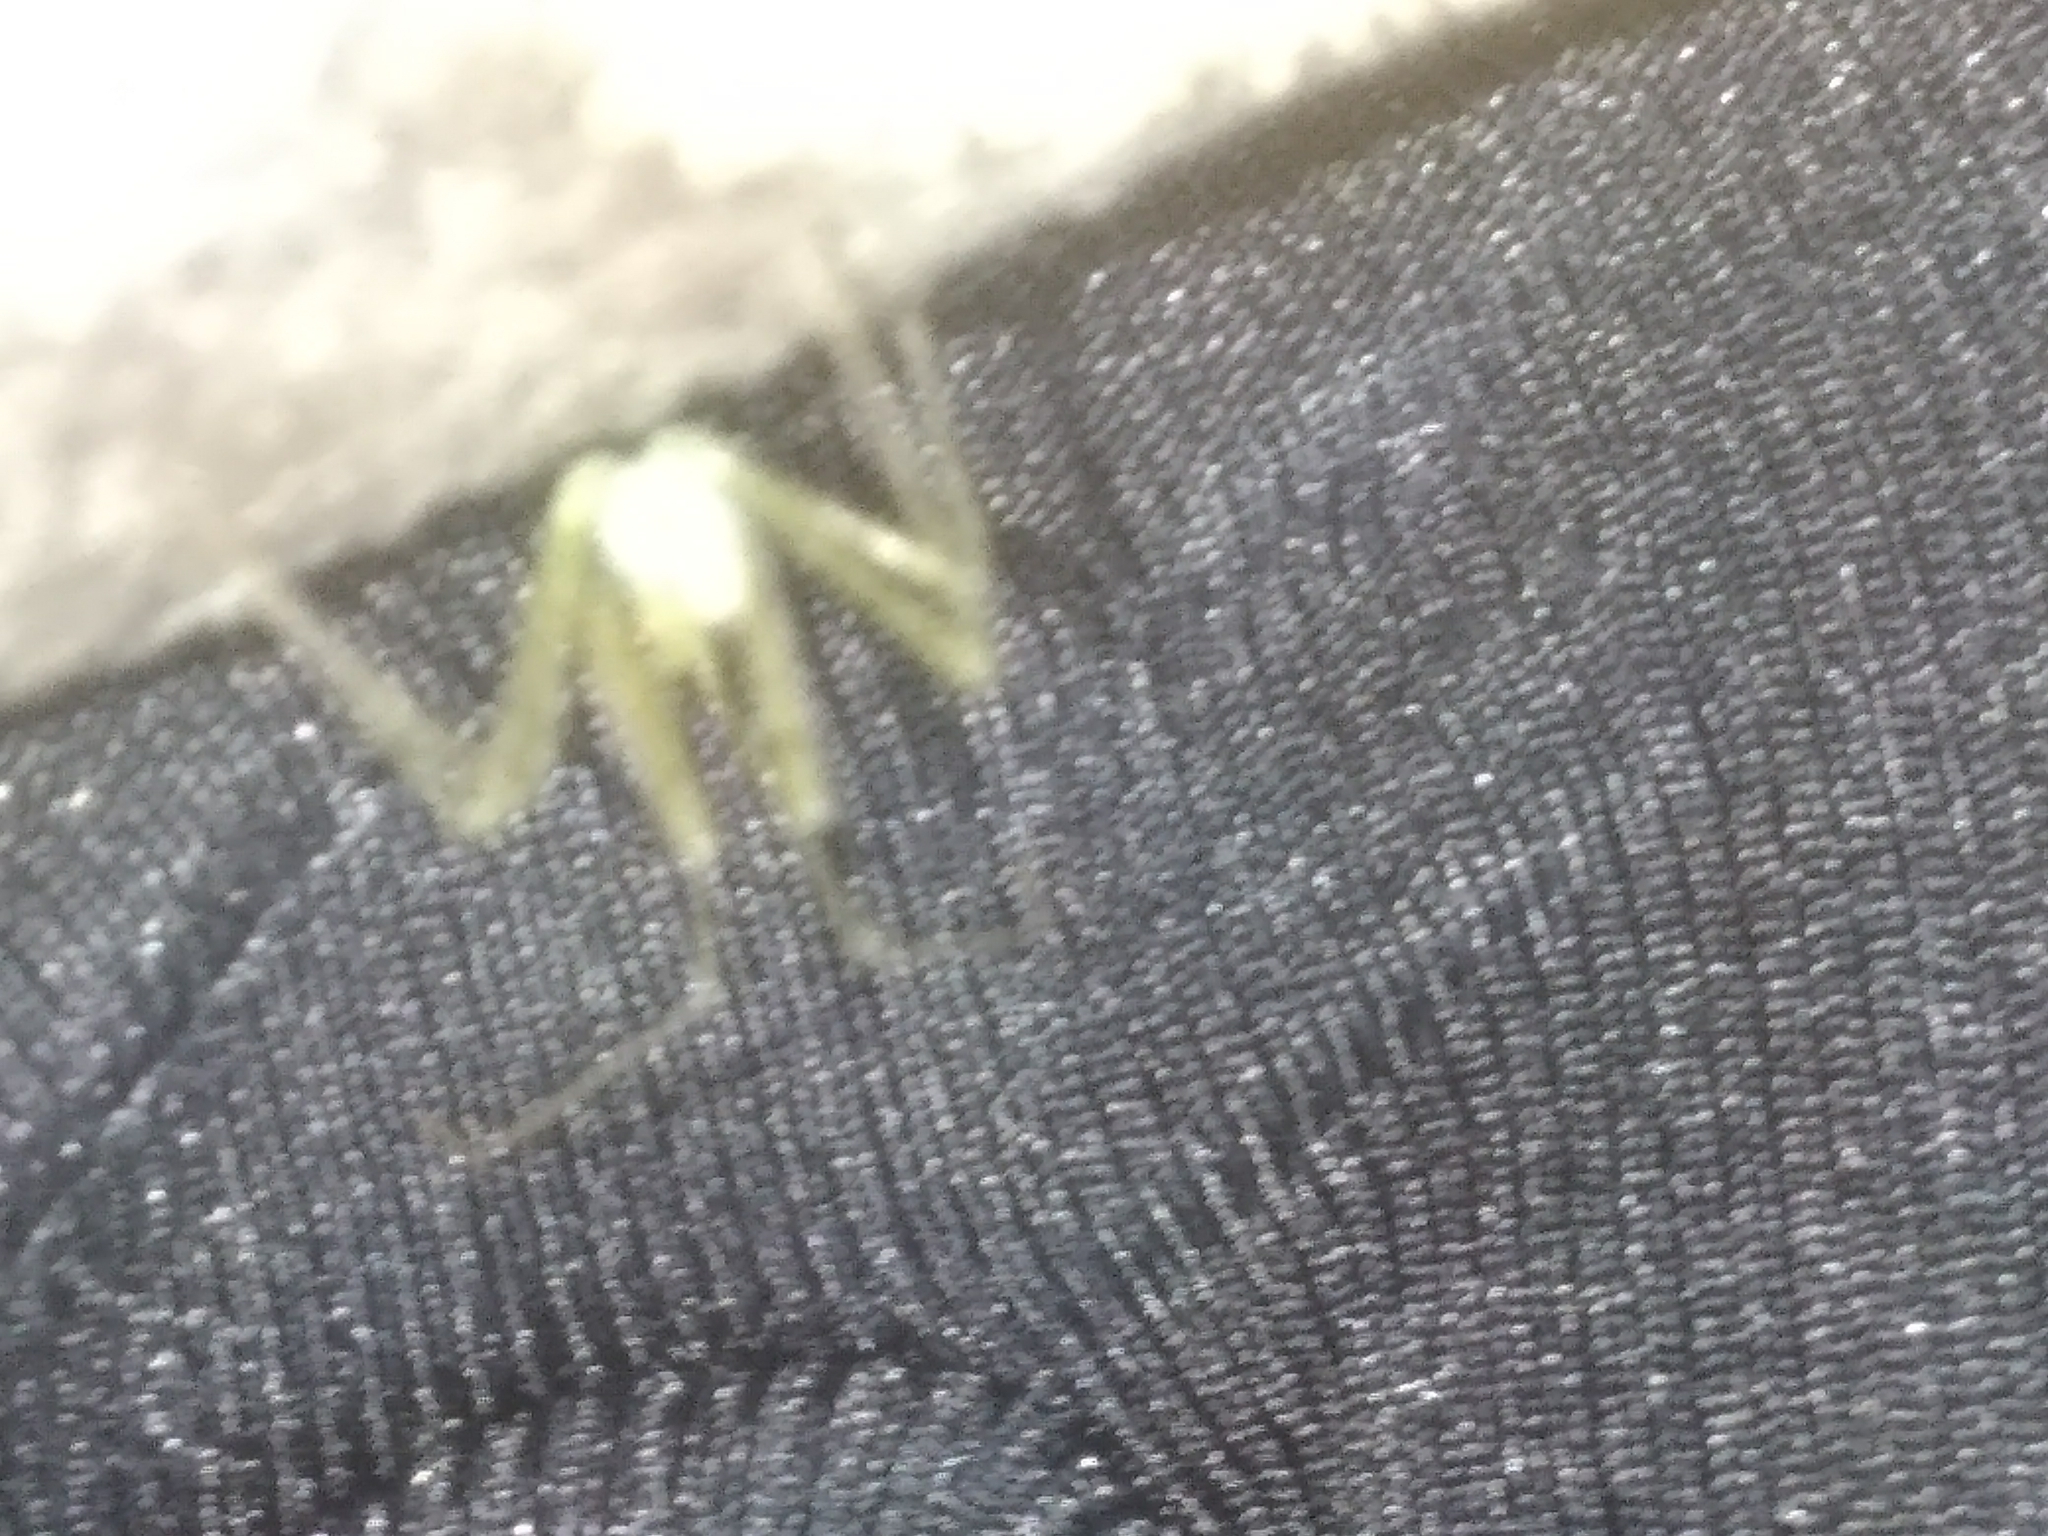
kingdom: Animalia
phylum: Arthropoda
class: Insecta
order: Hemiptera
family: Reduviidae
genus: Zelus
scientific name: Zelus luridus
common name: Pale green assassin bug
